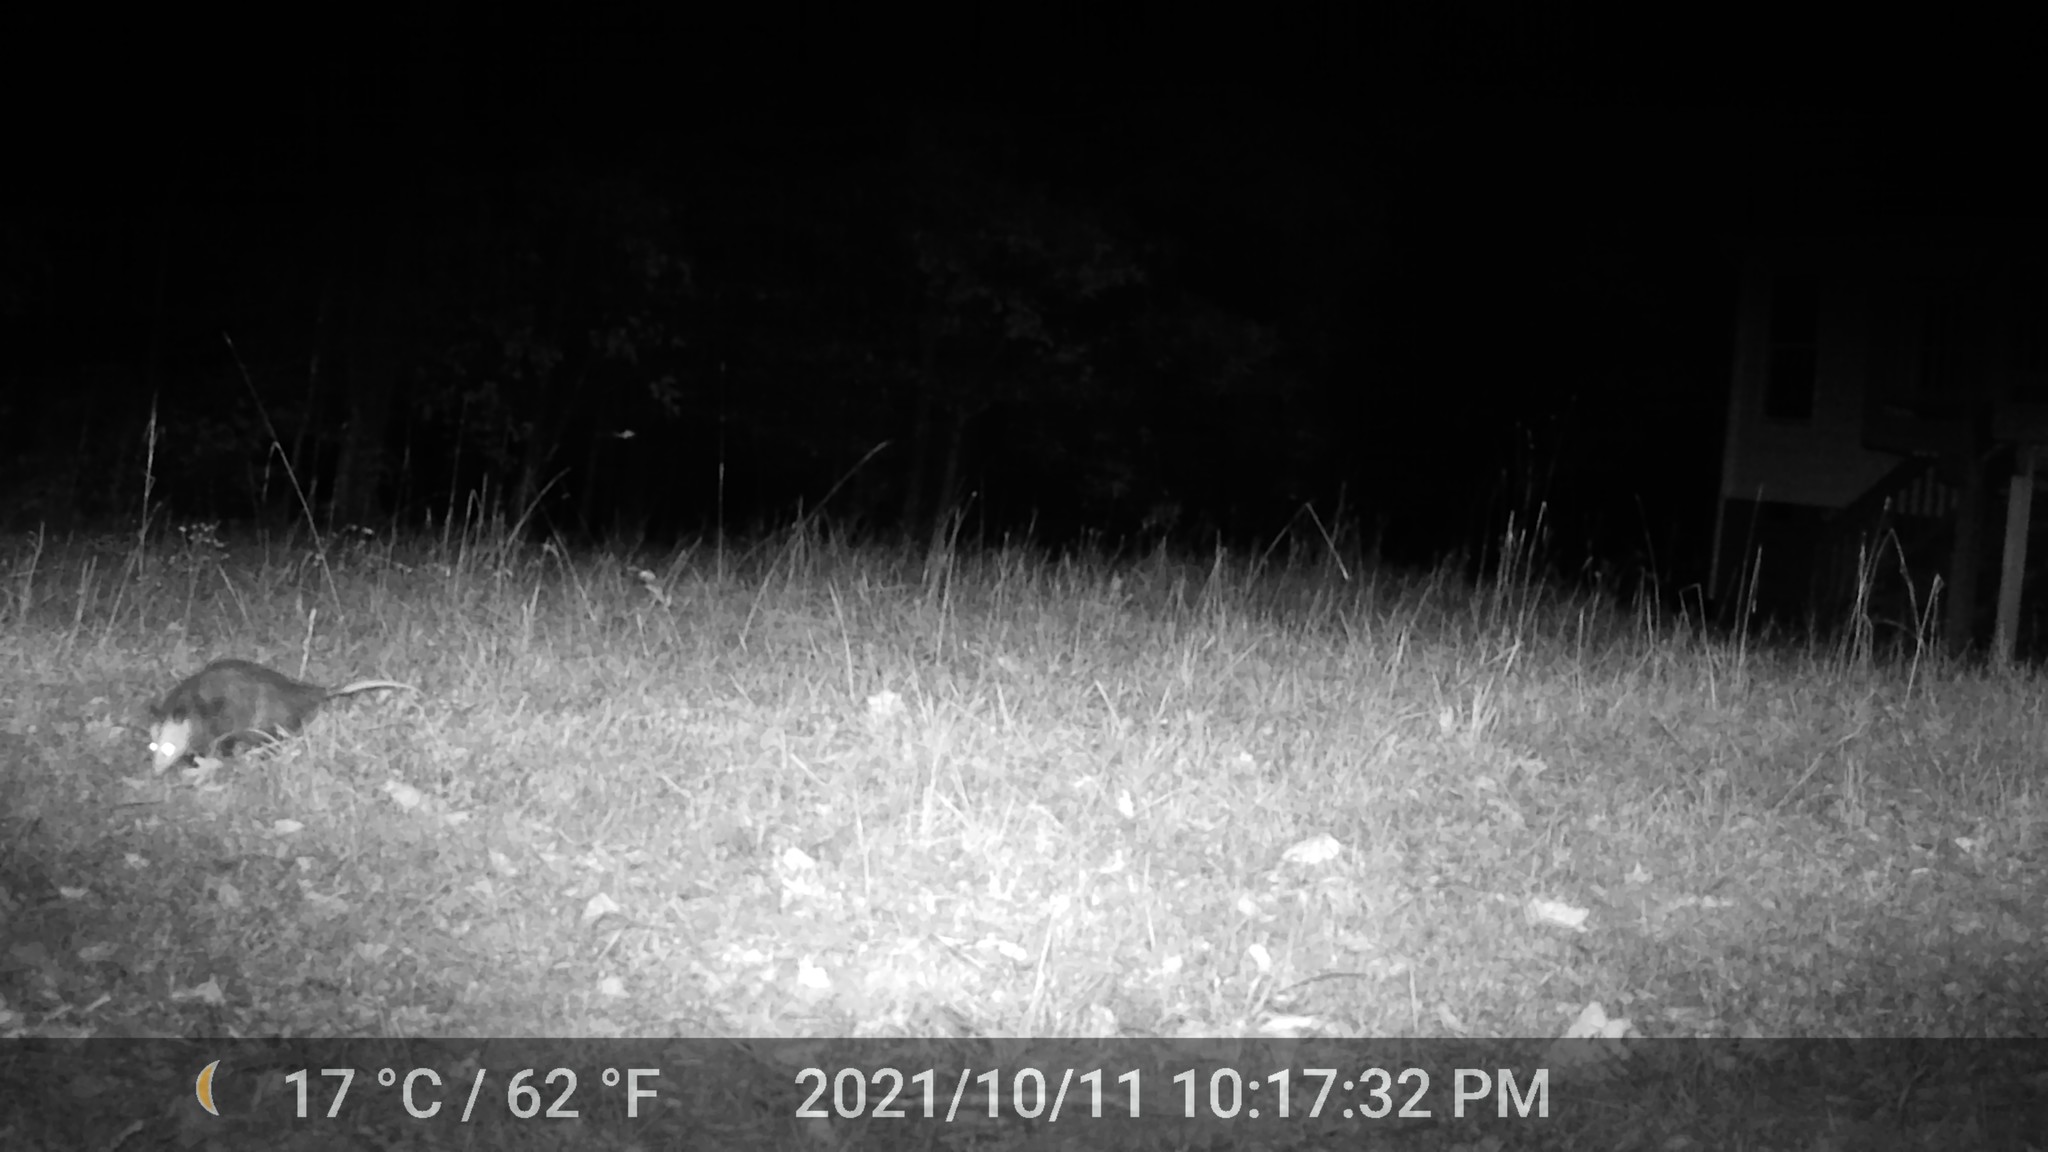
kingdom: Animalia
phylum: Chordata
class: Mammalia
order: Didelphimorphia
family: Didelphidae
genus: Didelphis
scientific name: Didelphis virginiana
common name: Virginia opossum
